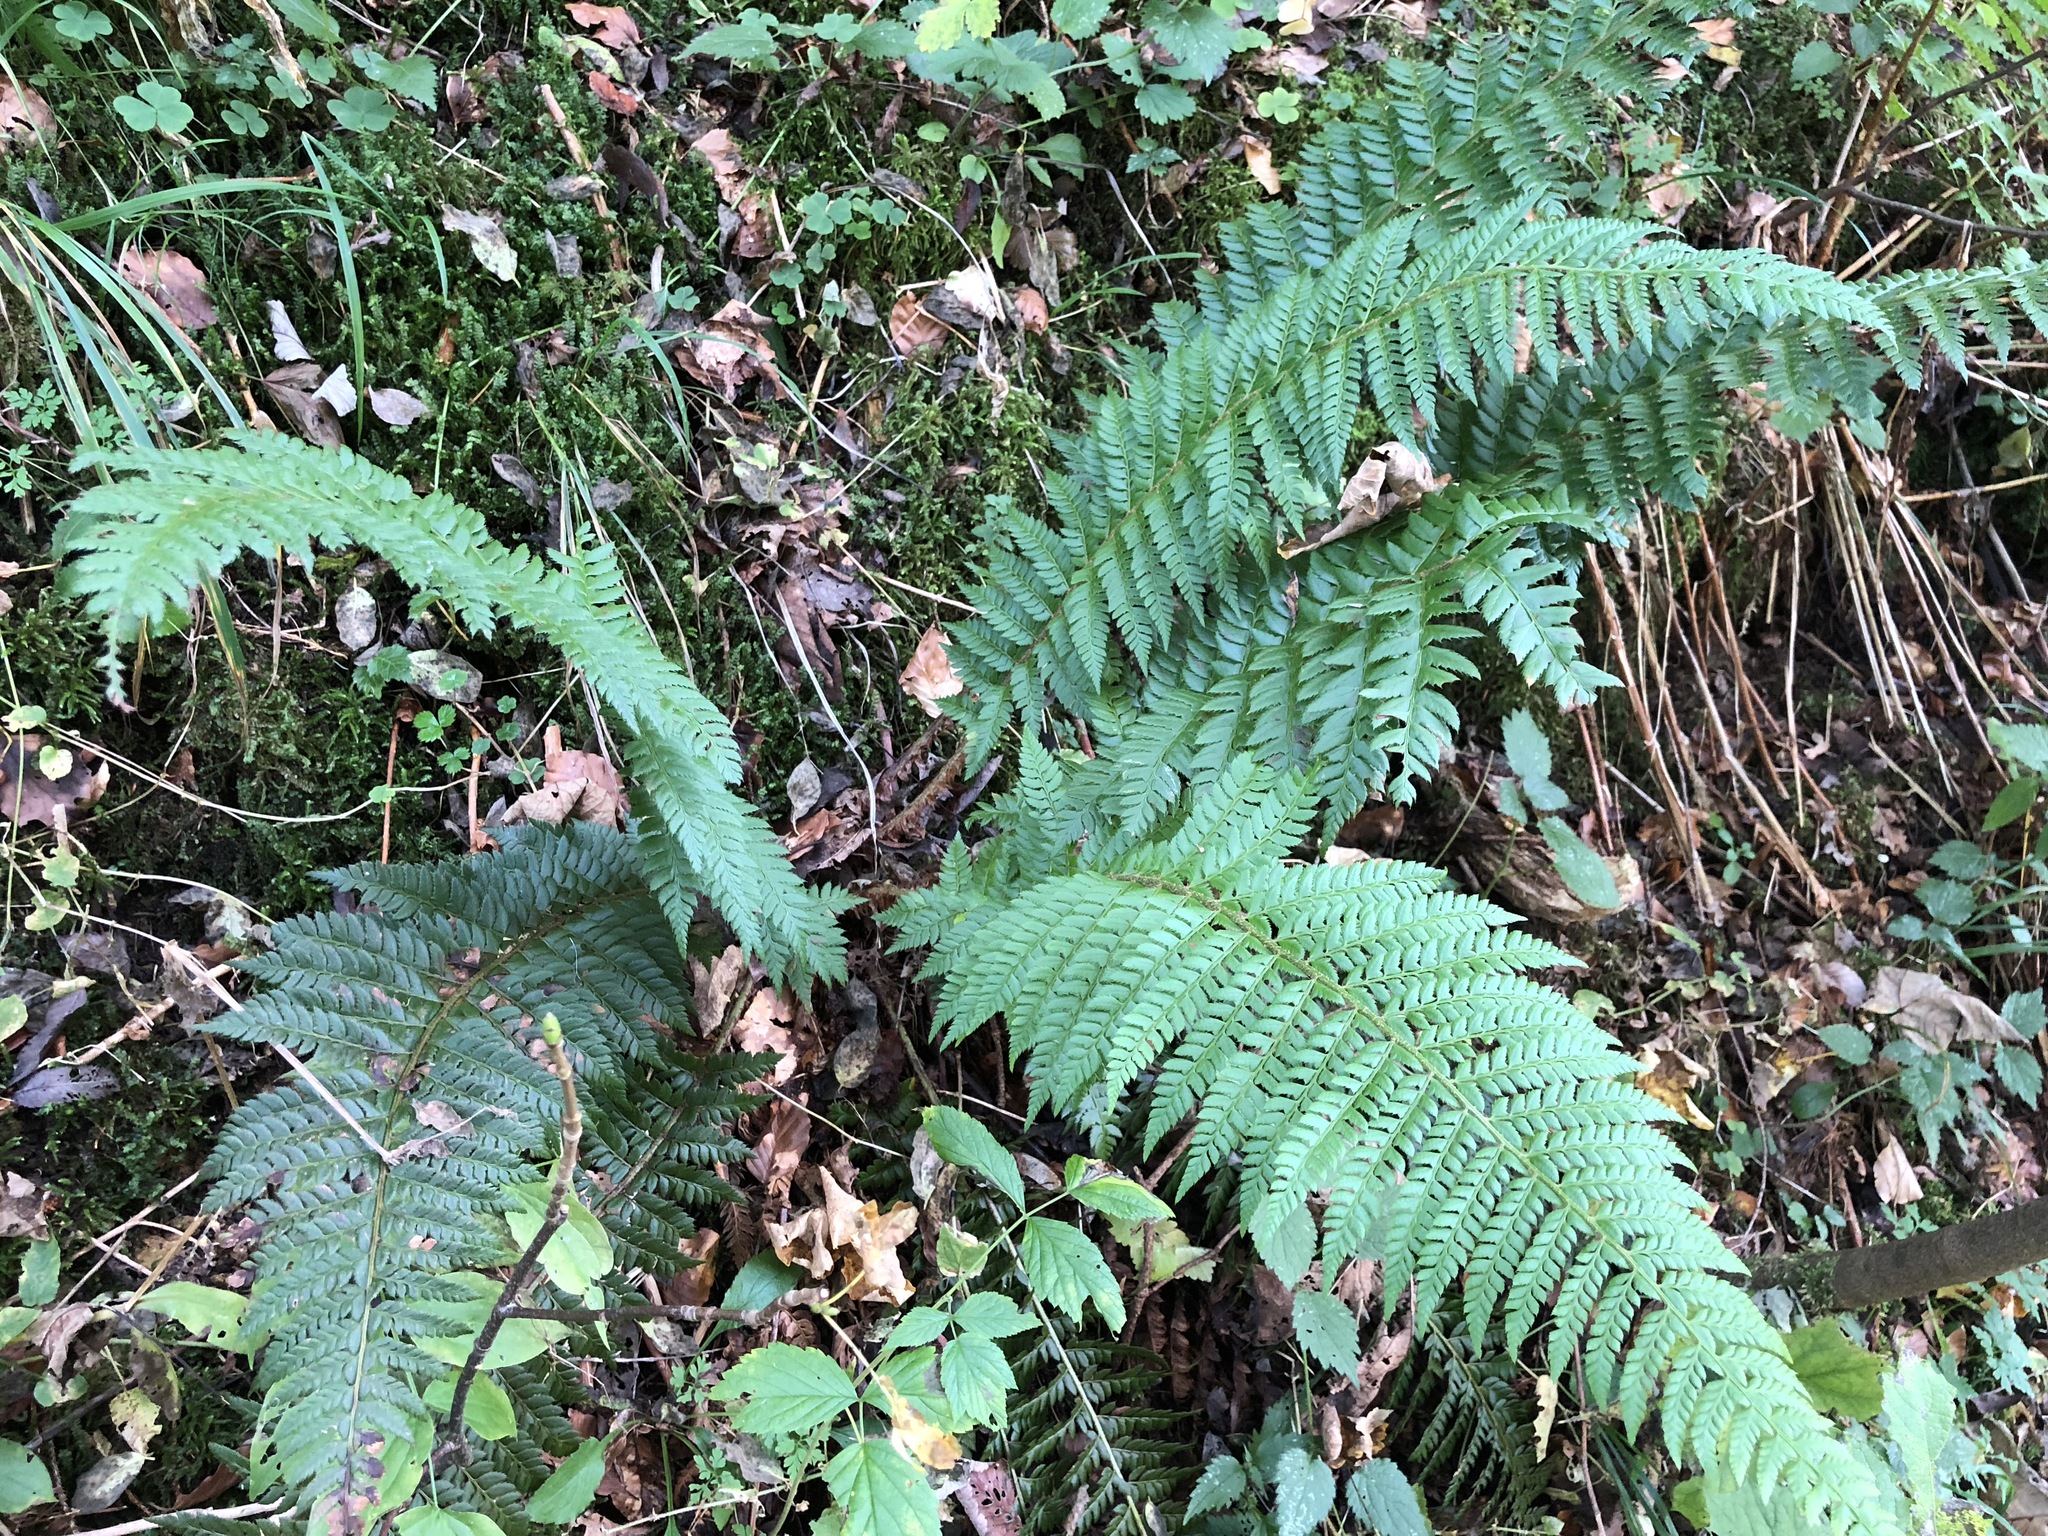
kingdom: Plantae
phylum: Tracheophyta
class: Polypodiopsida
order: Polypodiales
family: Dryopteridaceae
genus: Polystichum
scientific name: Polystichum aculeatum
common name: Hard shield-fern
